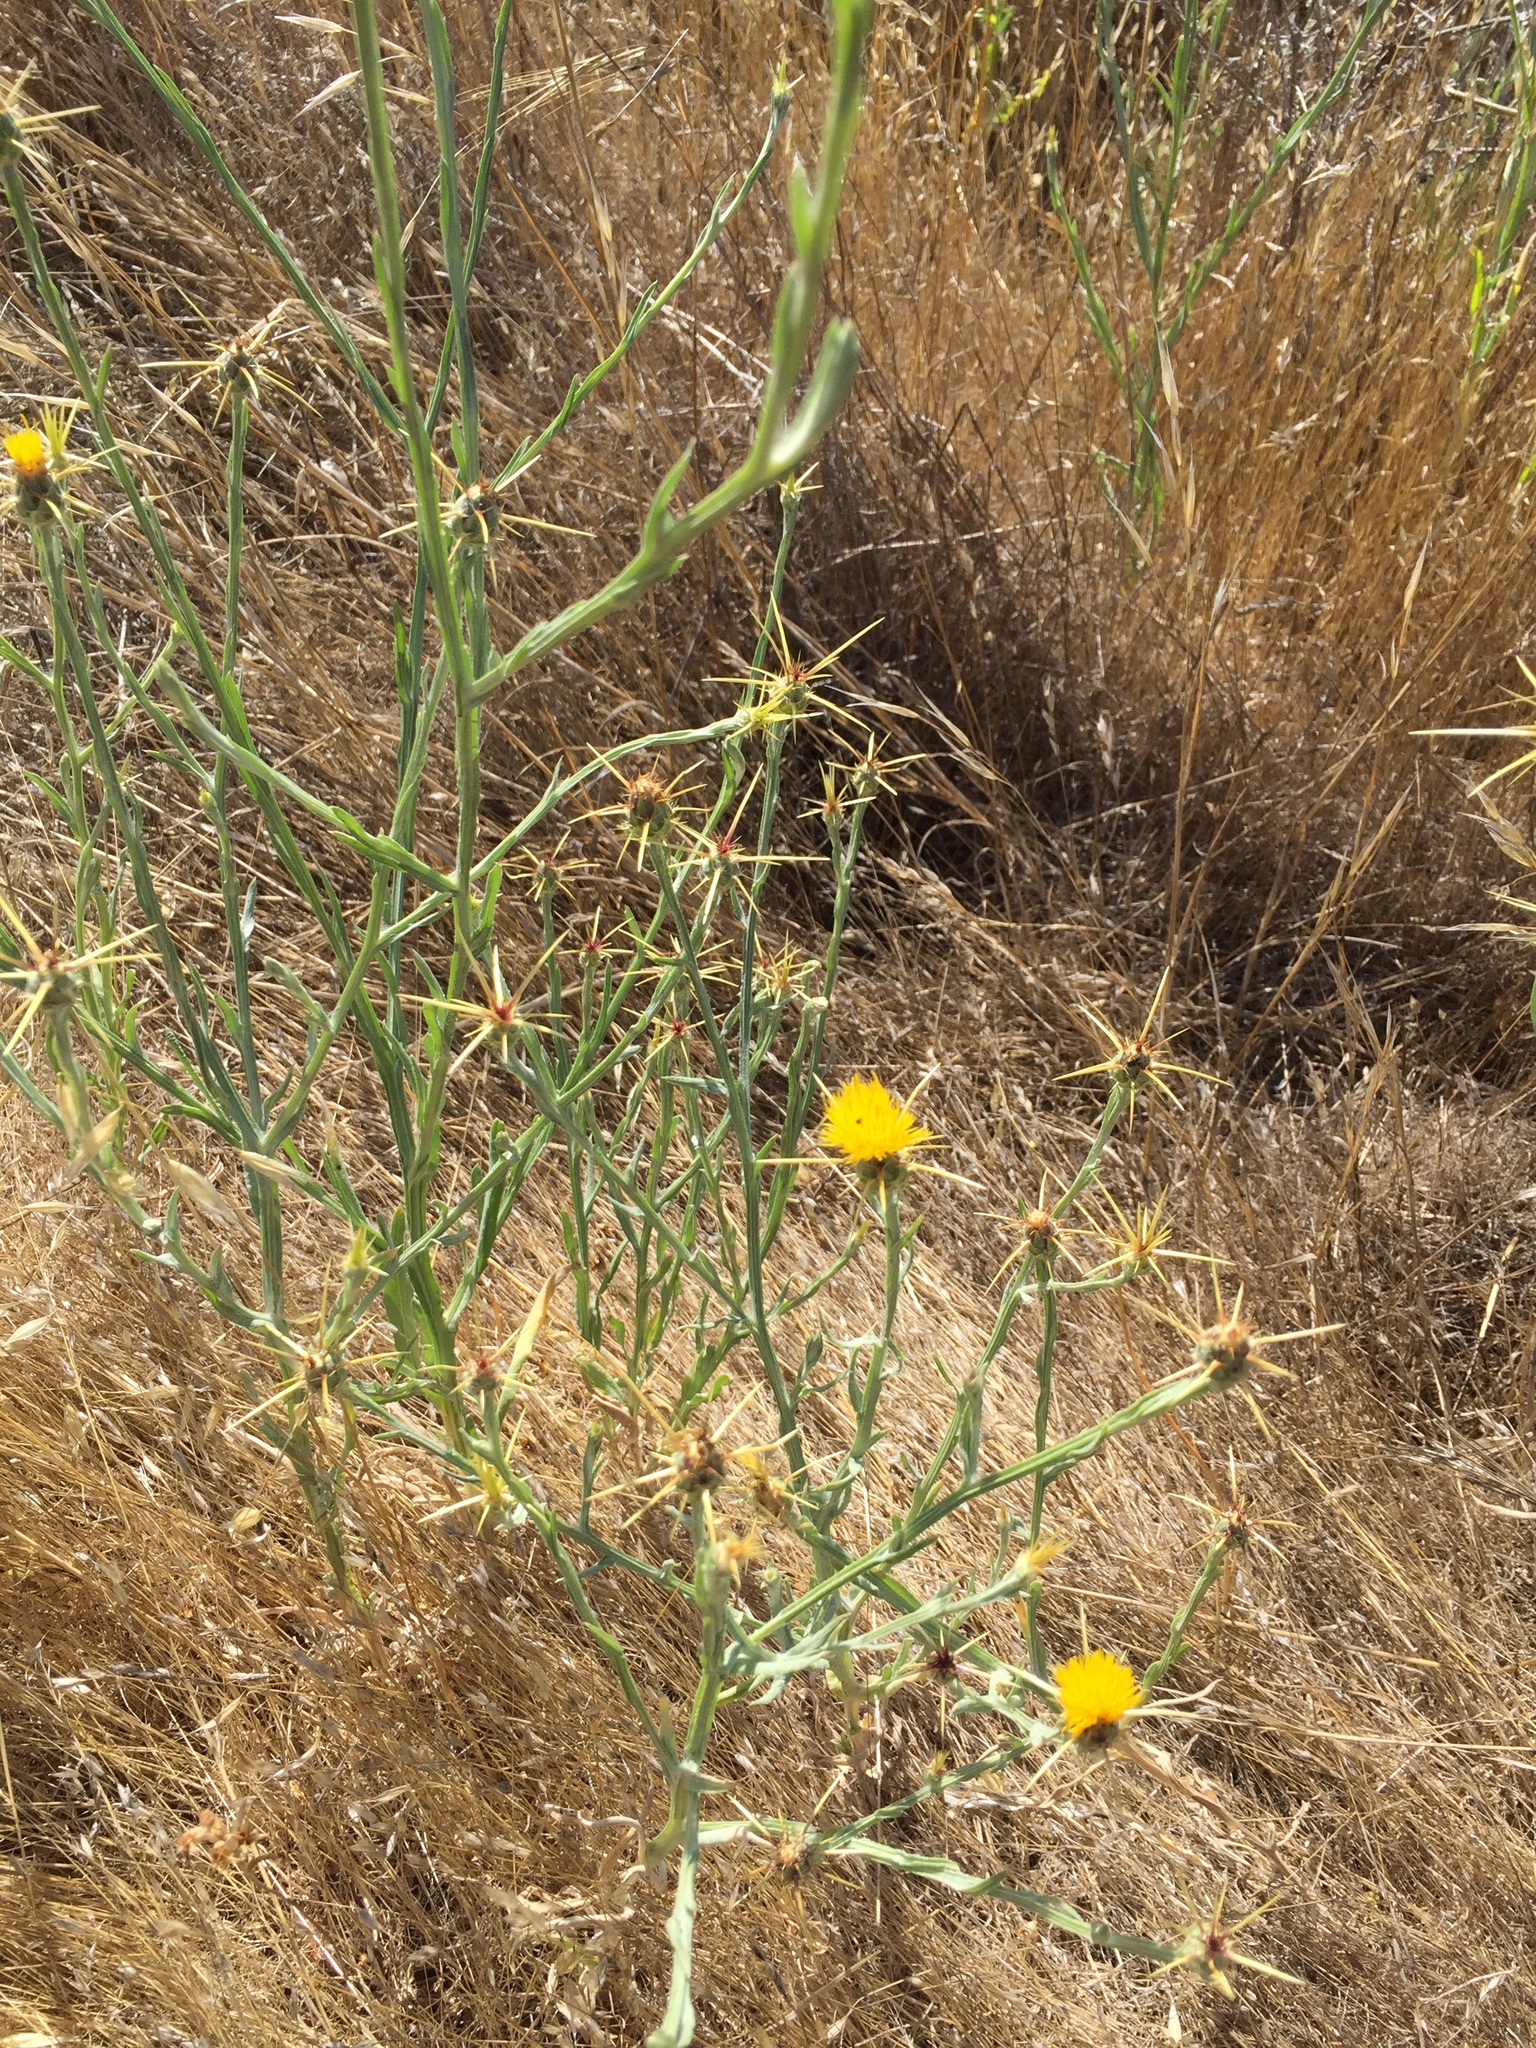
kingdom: Plantae
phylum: Tracheophyta
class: Magnoliopsida
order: Asterales
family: Asteraceae
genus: Centaurea
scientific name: Centaurea solstitialis
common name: Yellow star-thistle
